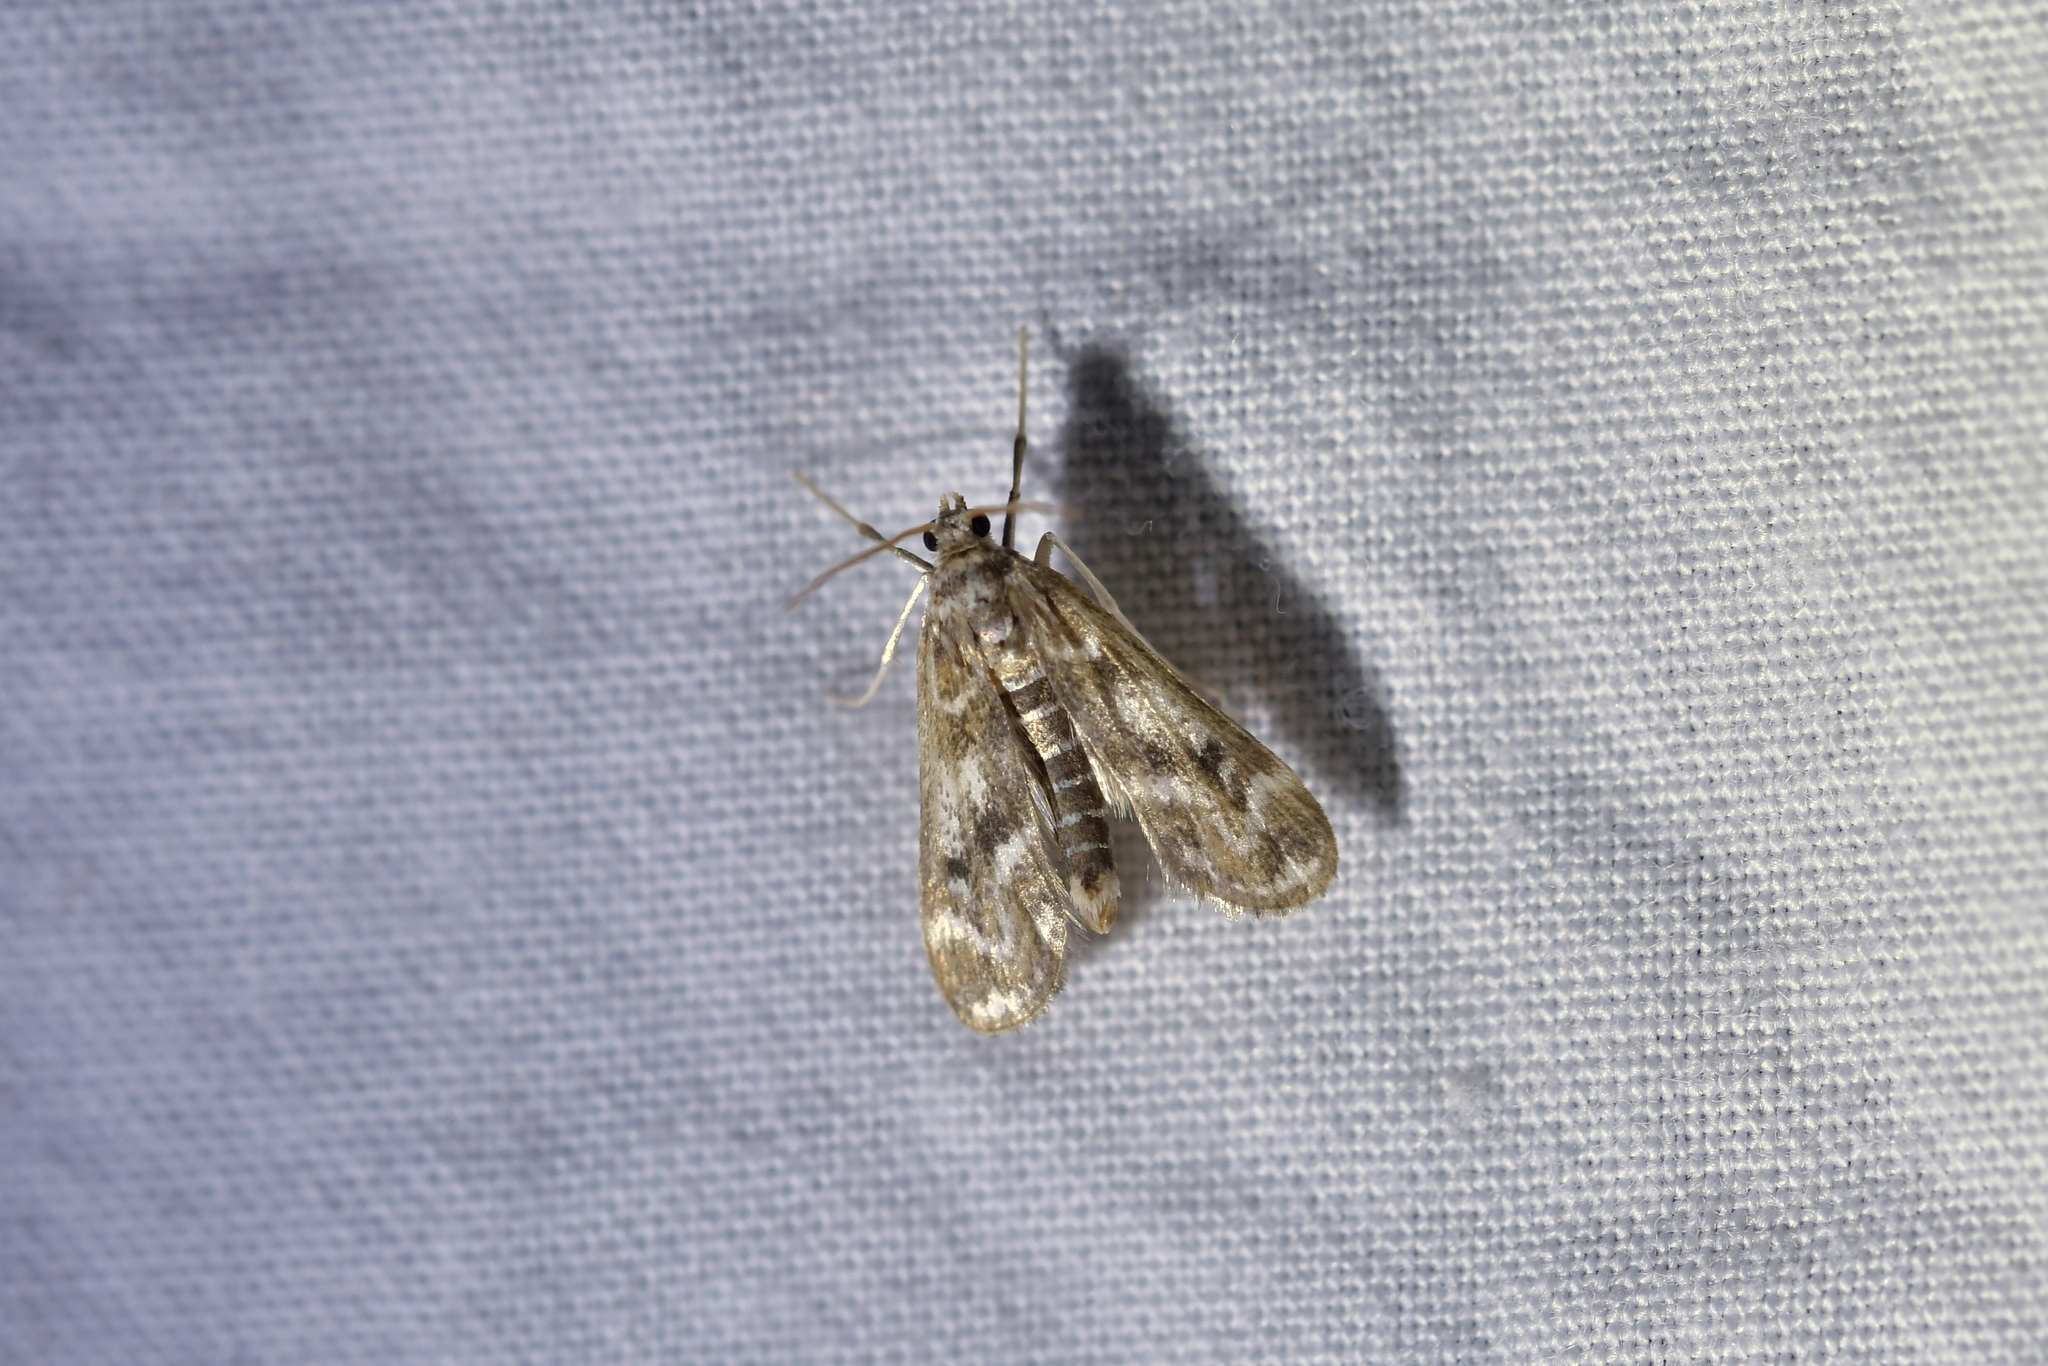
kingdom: Animalia
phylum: Arthropoda
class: Insecta
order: Lepidoptera
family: Crambidae
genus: Hygraula
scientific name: Hygraula nitens
